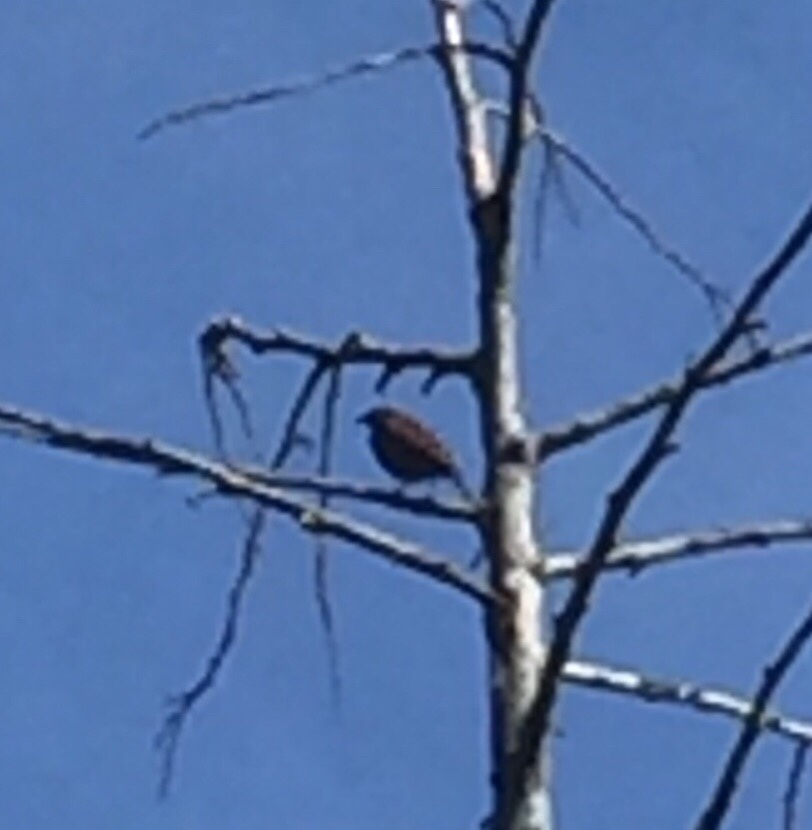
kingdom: Animalia
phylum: Chordata
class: Aves
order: Passeriformes
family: Prunellidae
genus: Prunella
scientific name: Prunella modularis
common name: Dunnock
